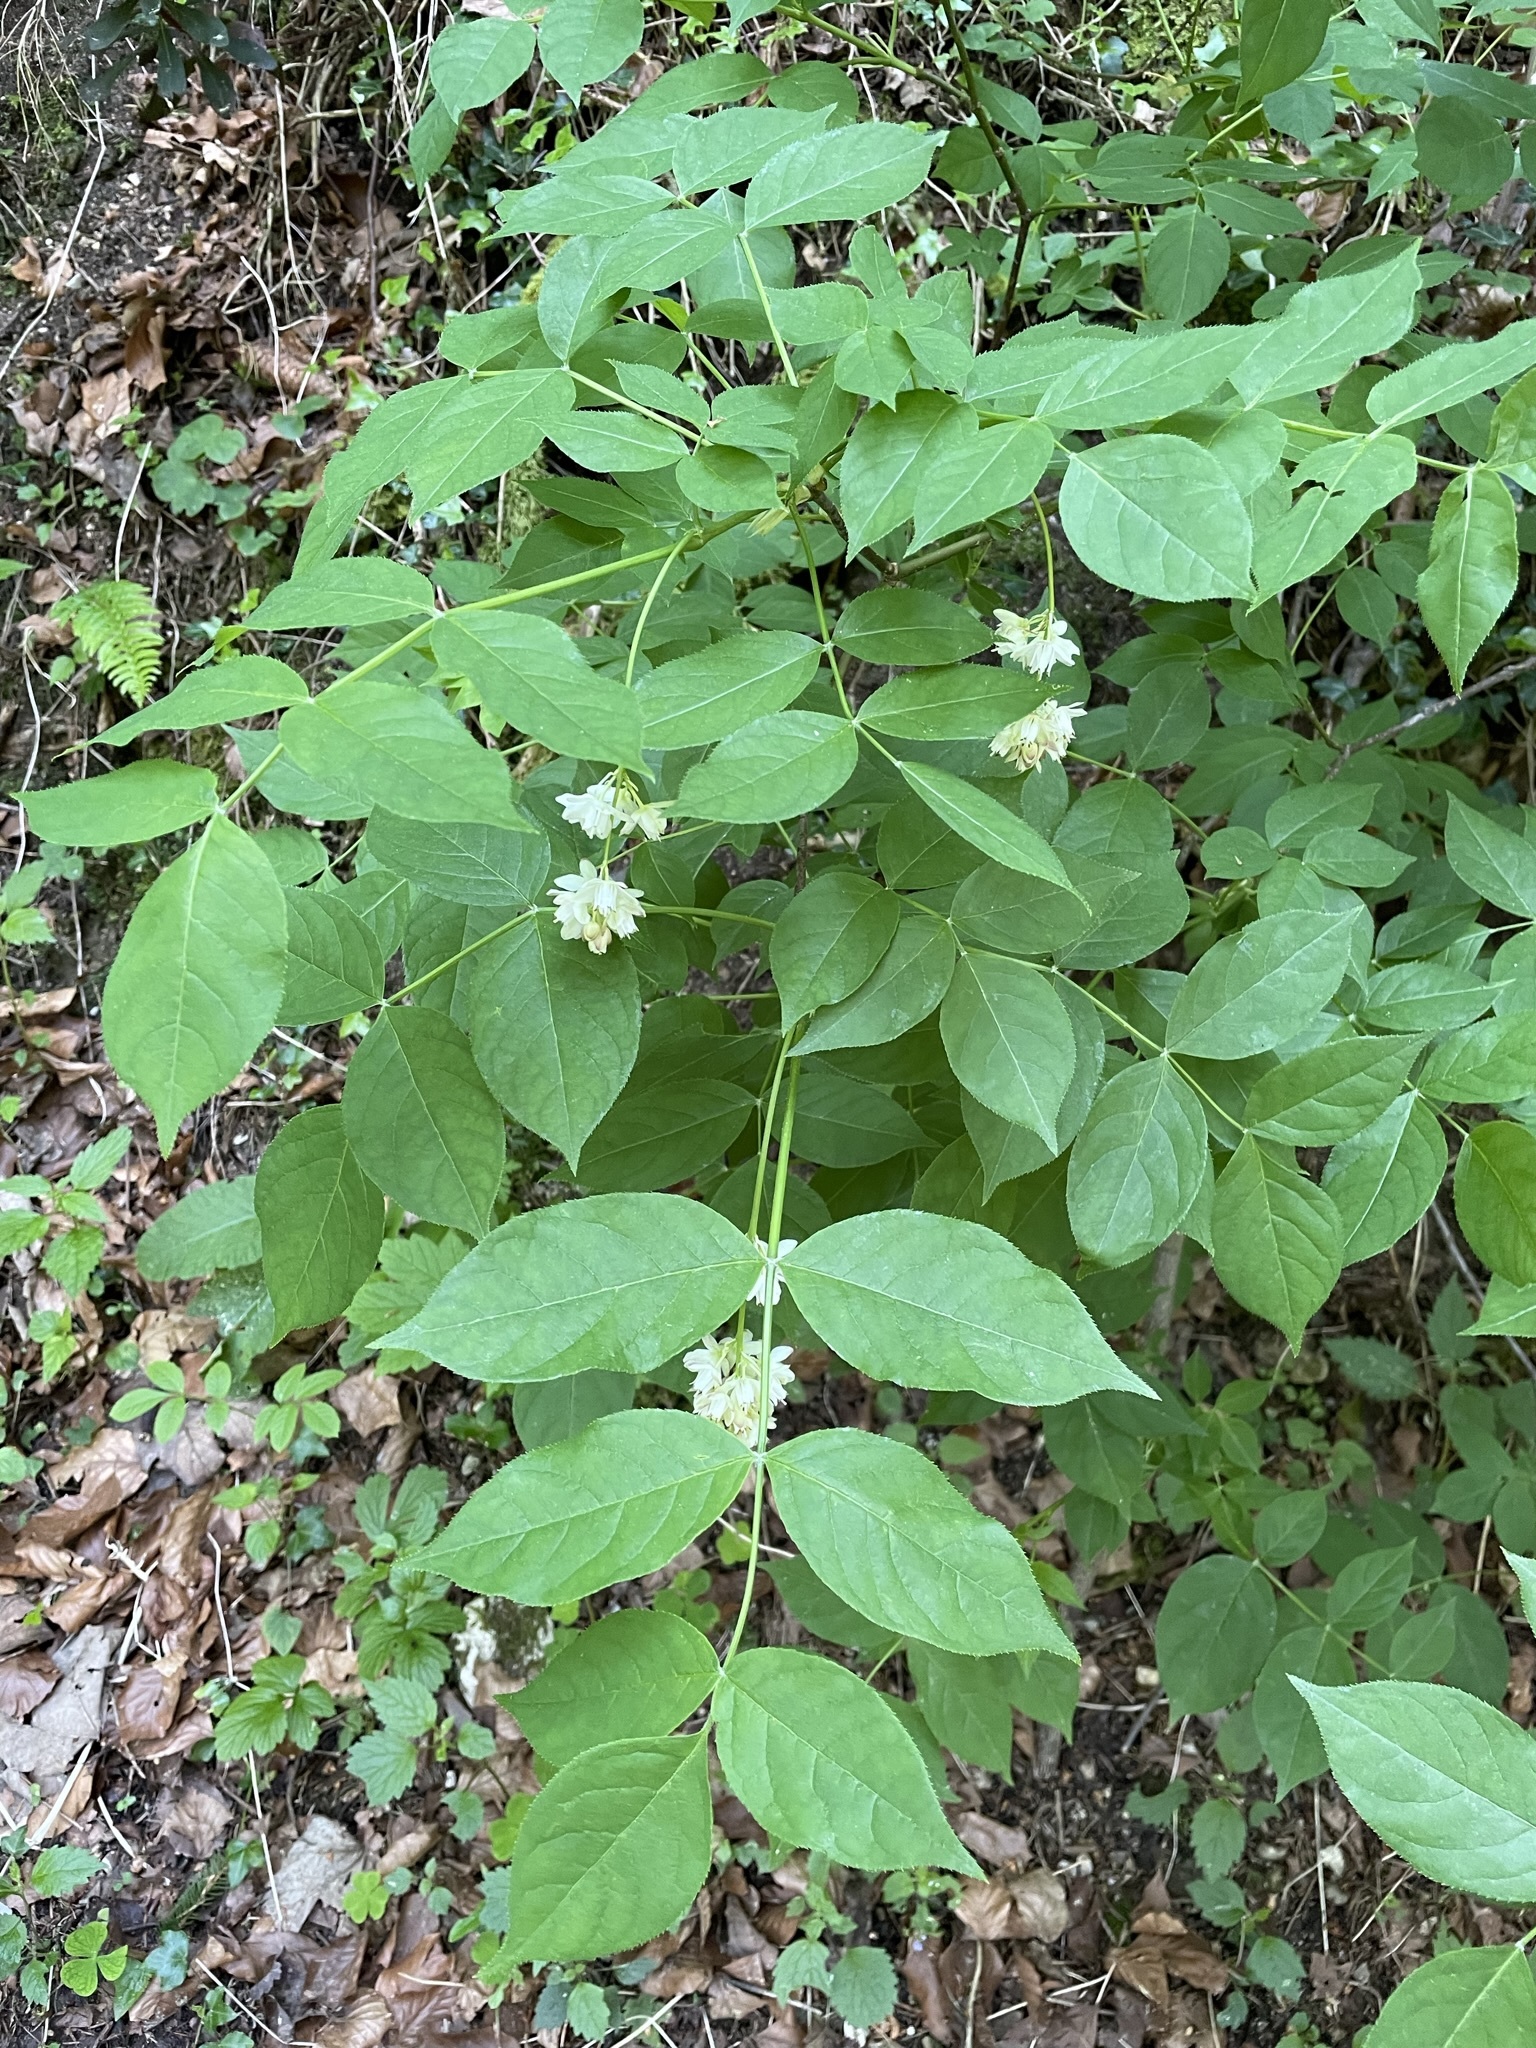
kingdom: Plantae
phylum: Tracheophyta
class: Magnoliopsida
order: Crossosomatales
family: Staphyleaceae
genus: Staphylea
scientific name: Staphylea pinnata
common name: Bladdernut
